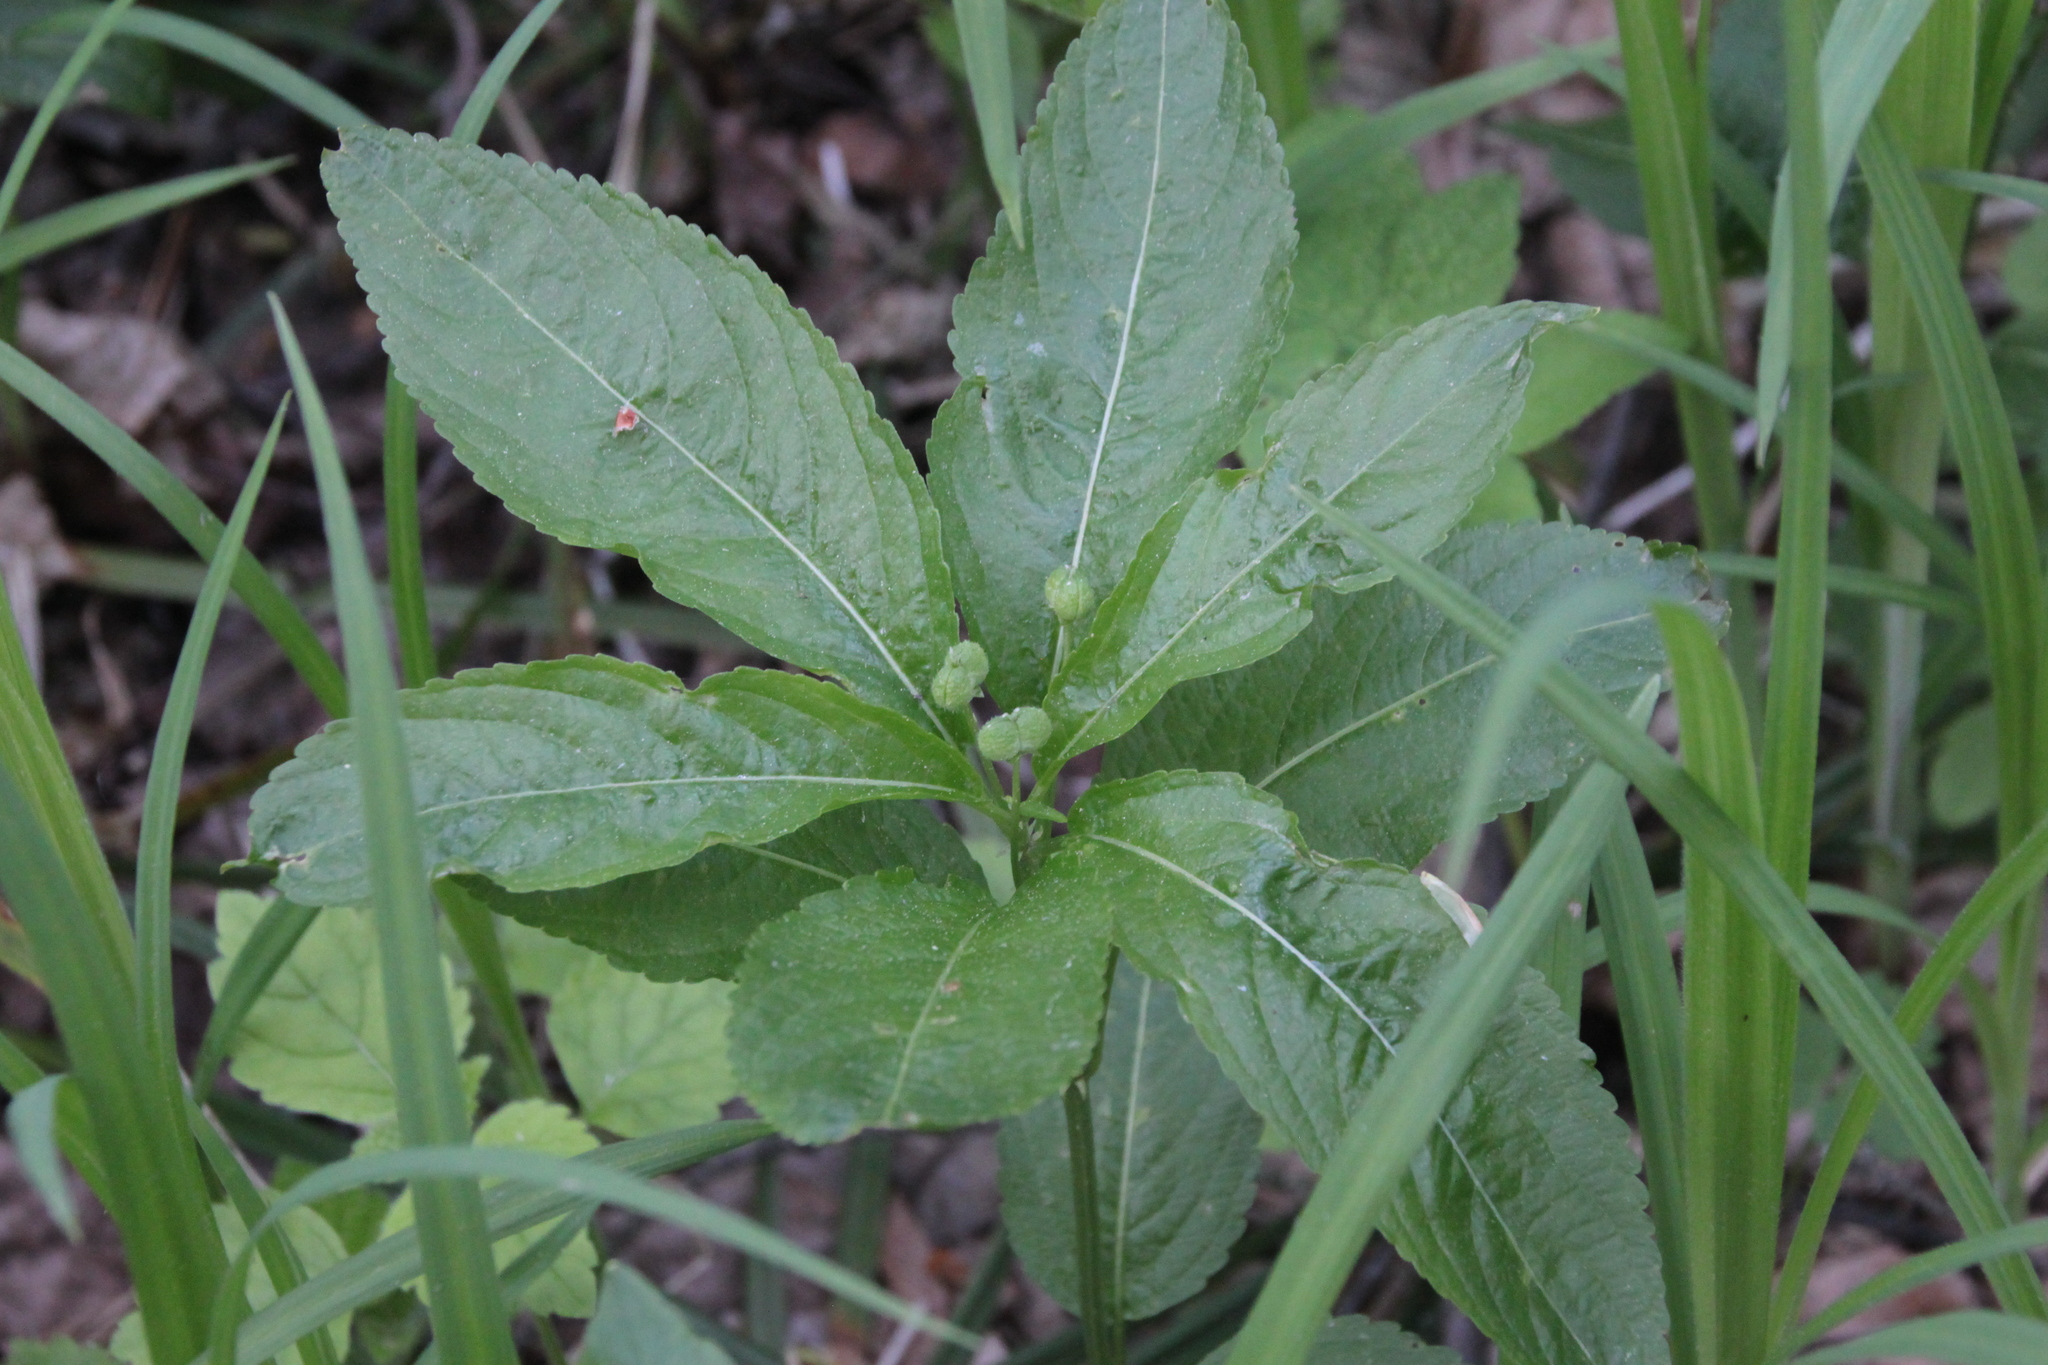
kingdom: Plantae
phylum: Tracheophyta
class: Magnoliopsida
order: Malpighiales
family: Euphorbiaceae
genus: Mercurialis
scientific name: Mercurialis perennis
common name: Dog mercury
